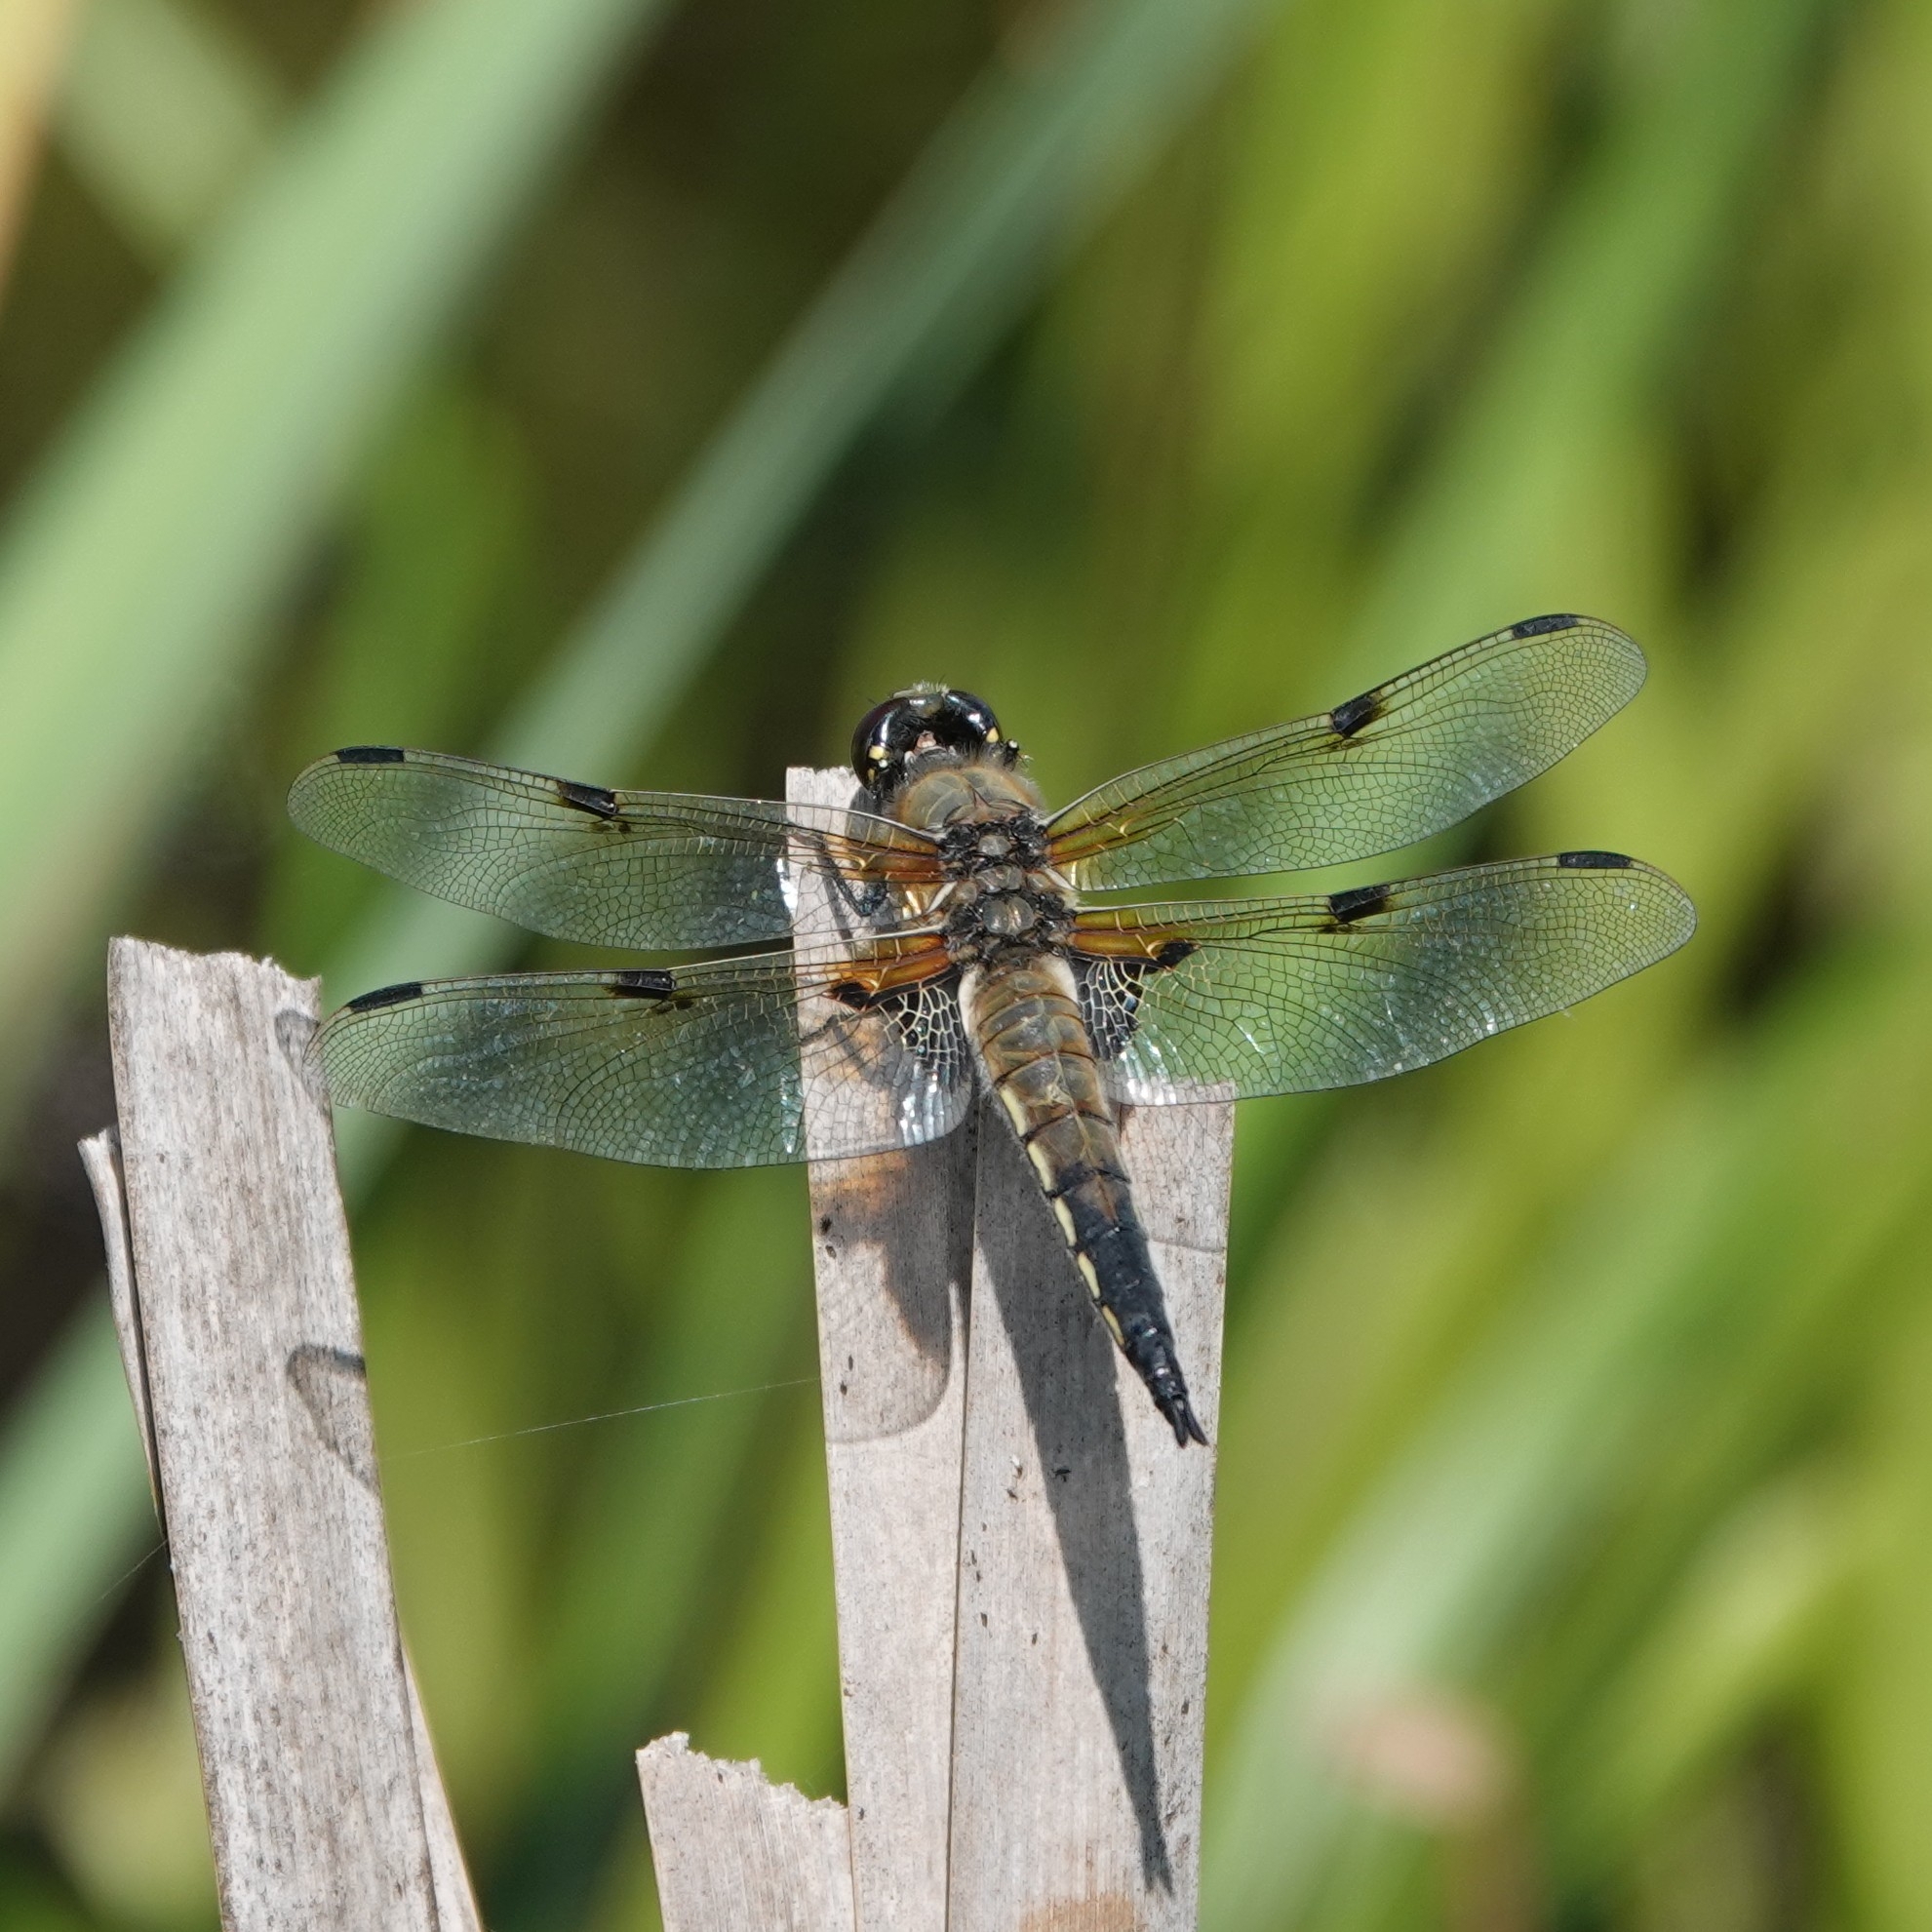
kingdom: Animalia
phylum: Arthropoda
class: Insecta
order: Odonata
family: Libellulidae
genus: Libellula
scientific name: Libellula quadrimaculata
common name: Four-spotted chaser
